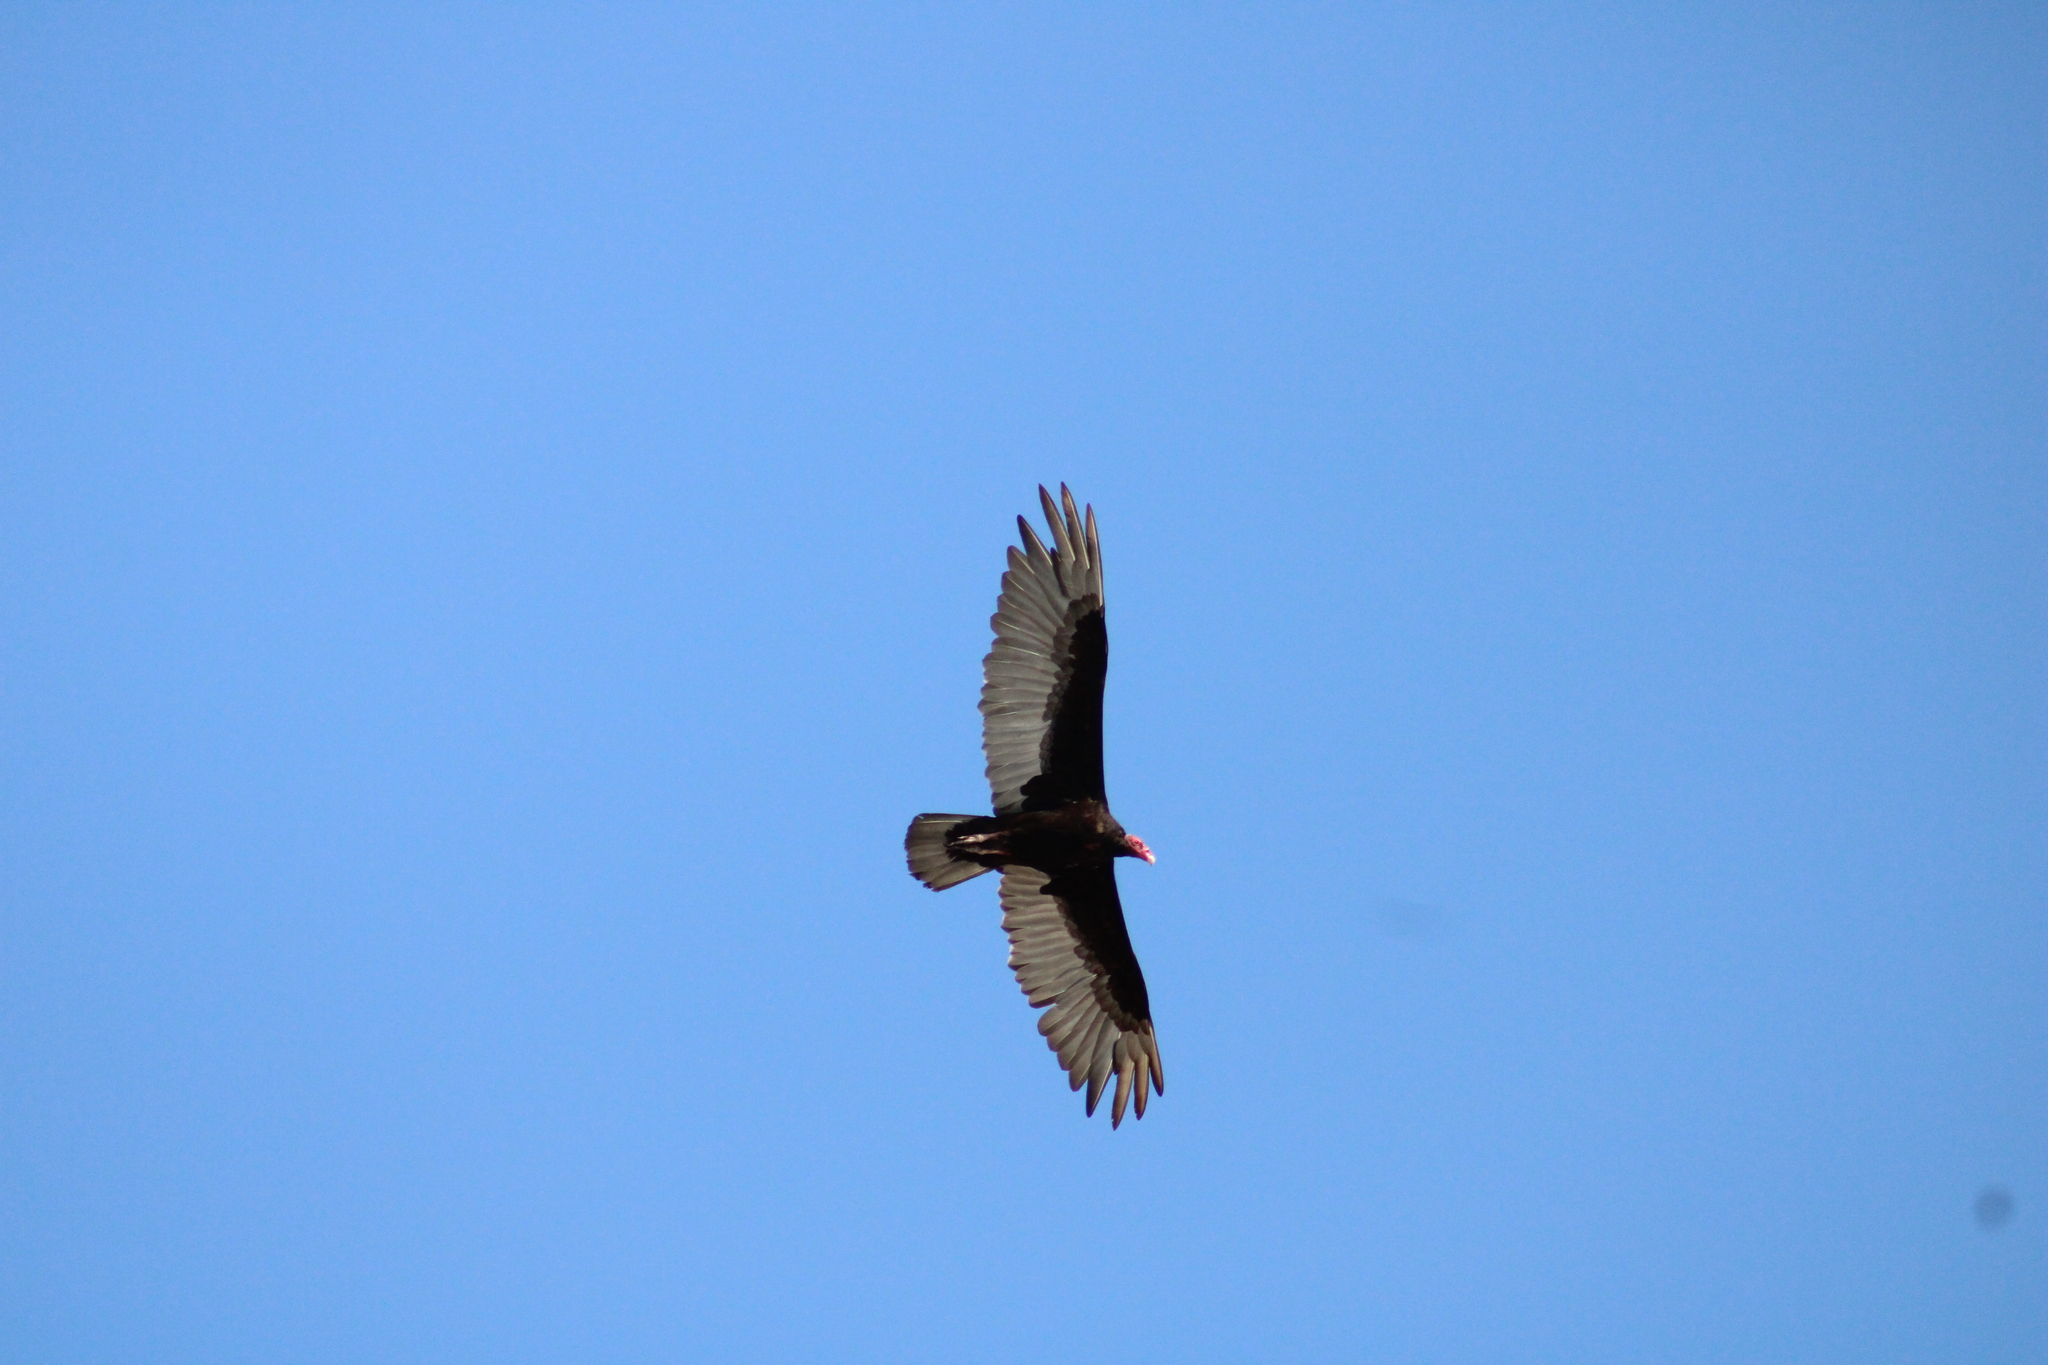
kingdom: Animalia
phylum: Chordata
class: Aves
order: Accipitriformes
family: Cathartidae
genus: Cathartes
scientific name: Cathartes aura
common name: Turkey vulture
